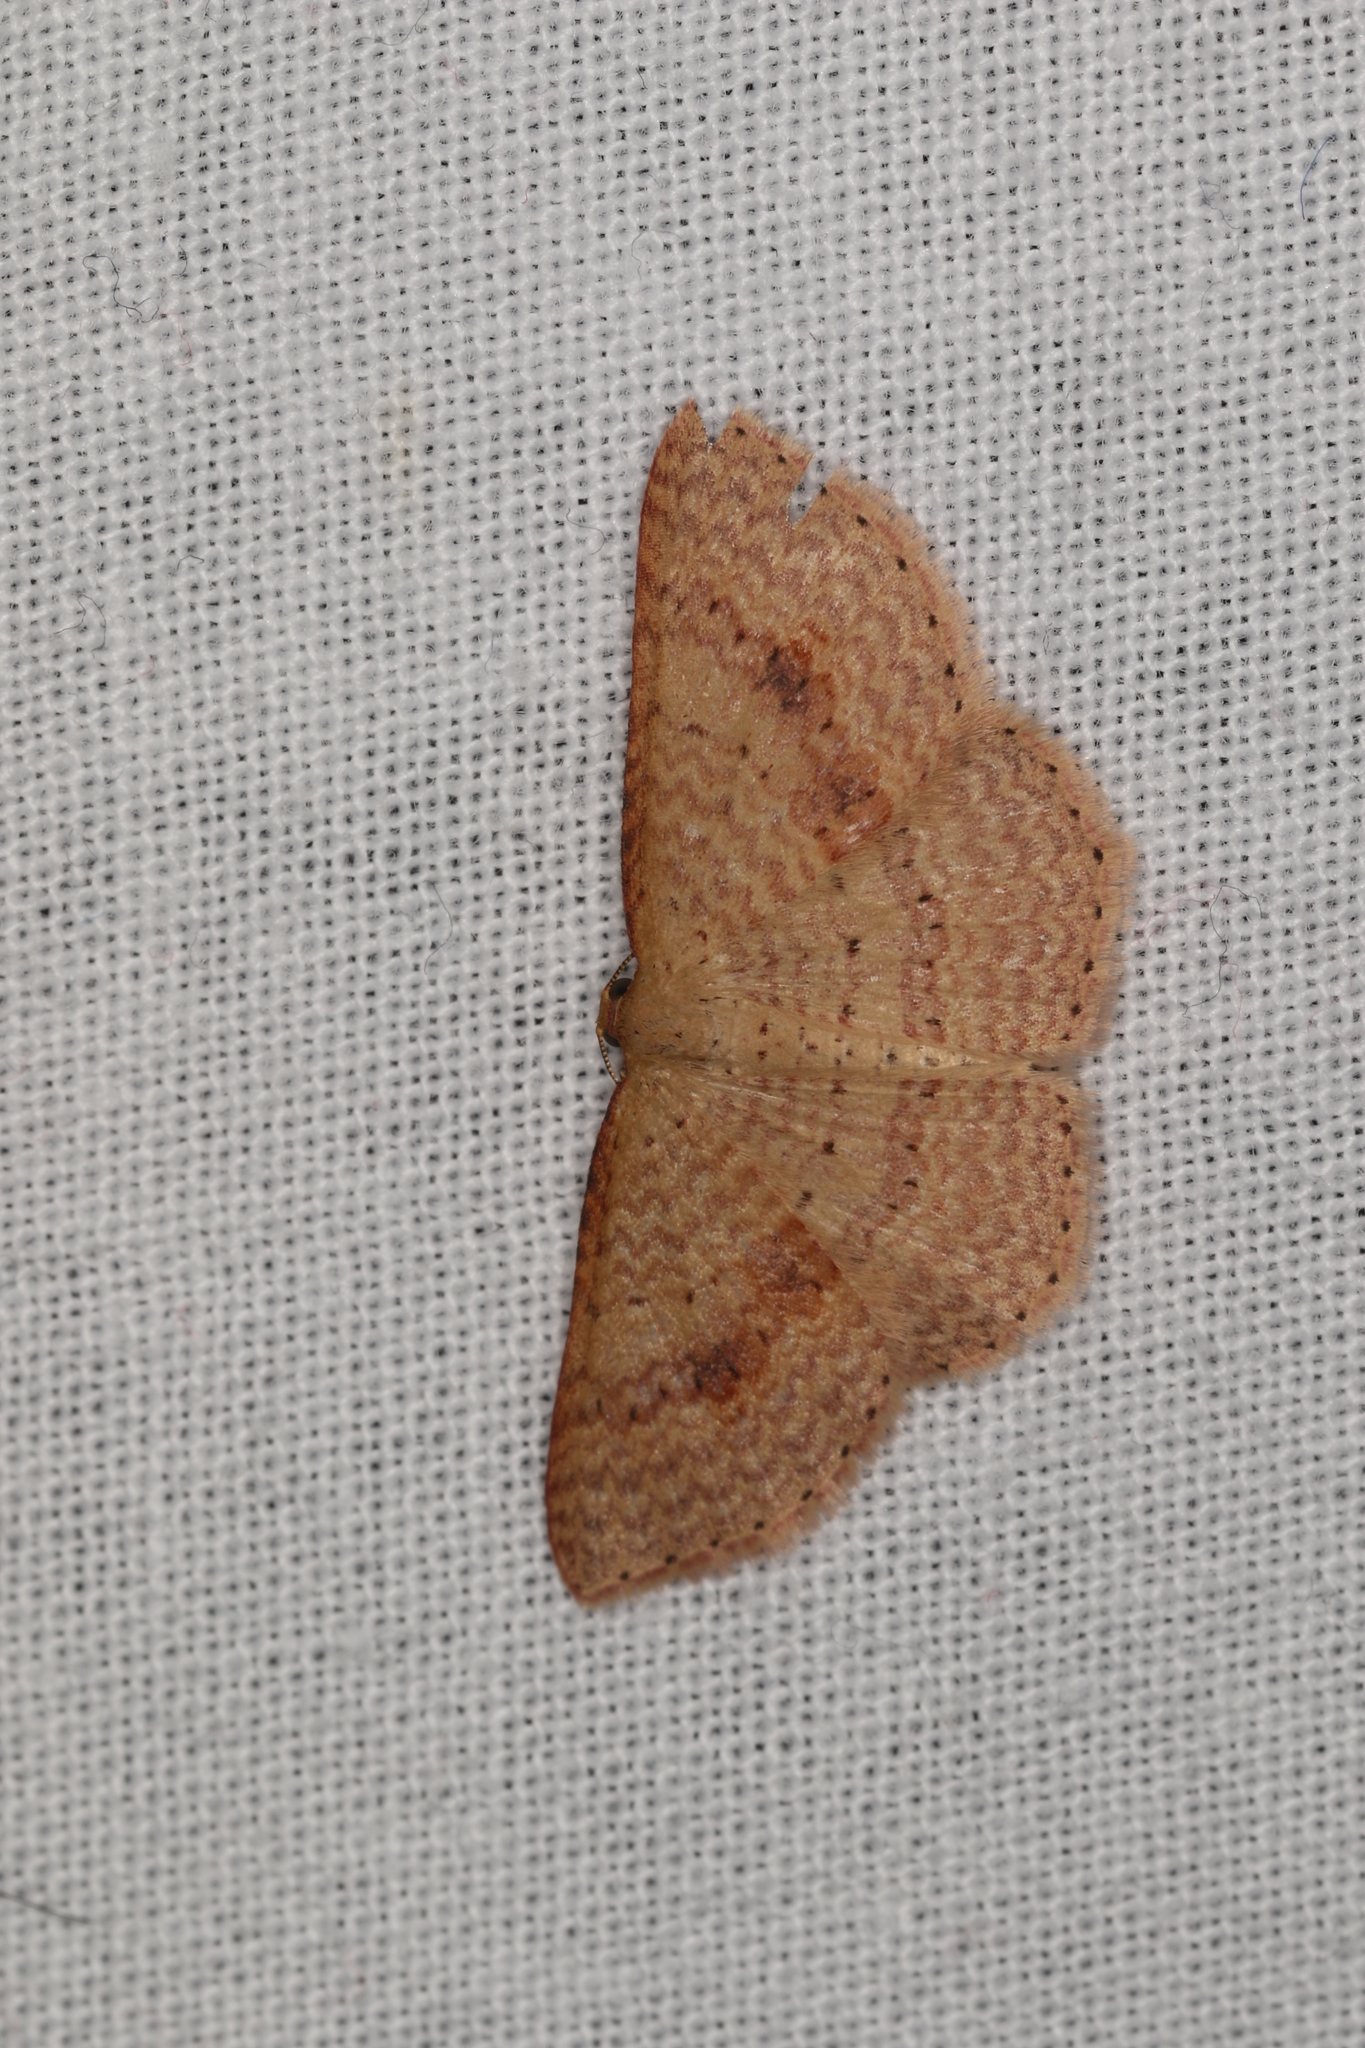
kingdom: Animalia
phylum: Arthropoda
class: Insecta
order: Lepidoptera
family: Geometridae
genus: Epicyme
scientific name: Epicyme rubropunctaria
